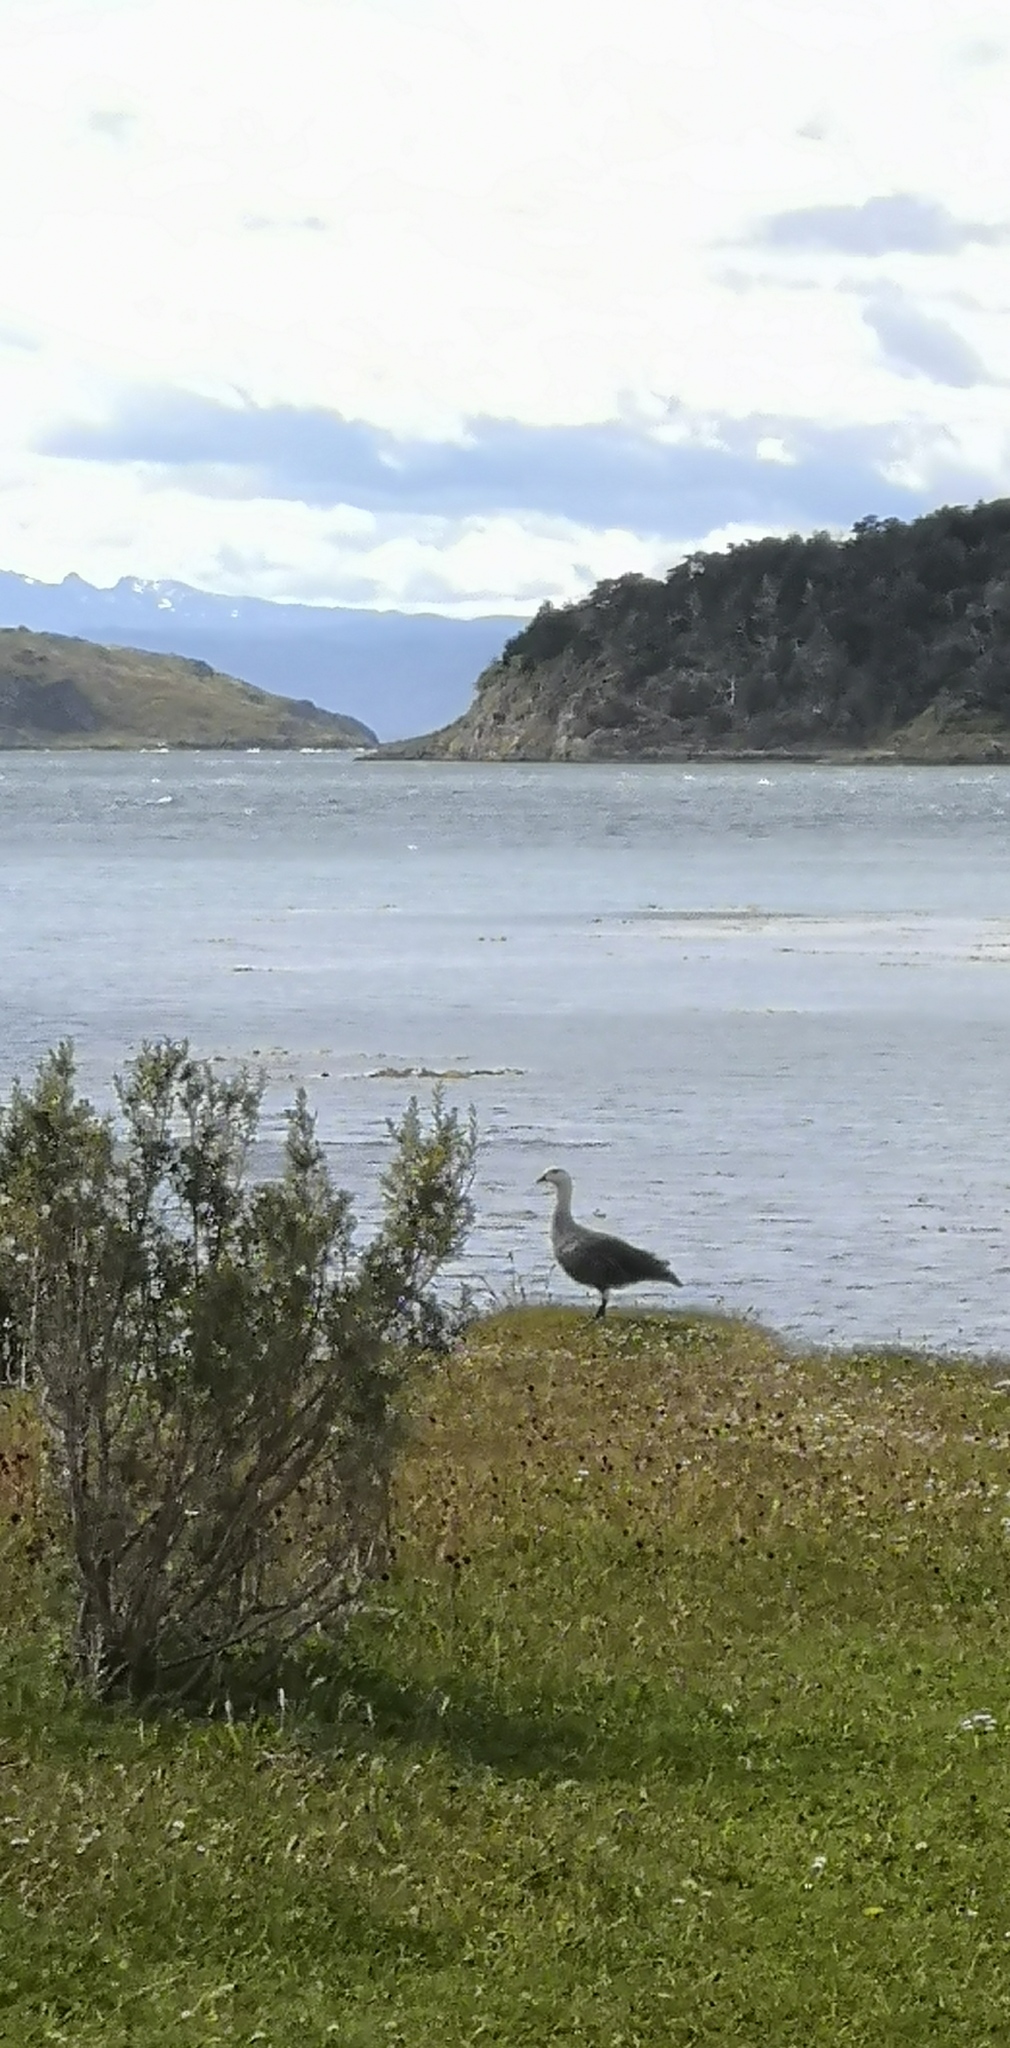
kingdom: Animalia
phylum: Chordata
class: Aves
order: Anseriformes
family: Anatidae
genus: Chloephaga
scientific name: Chloephaga picta
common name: Upland goose
